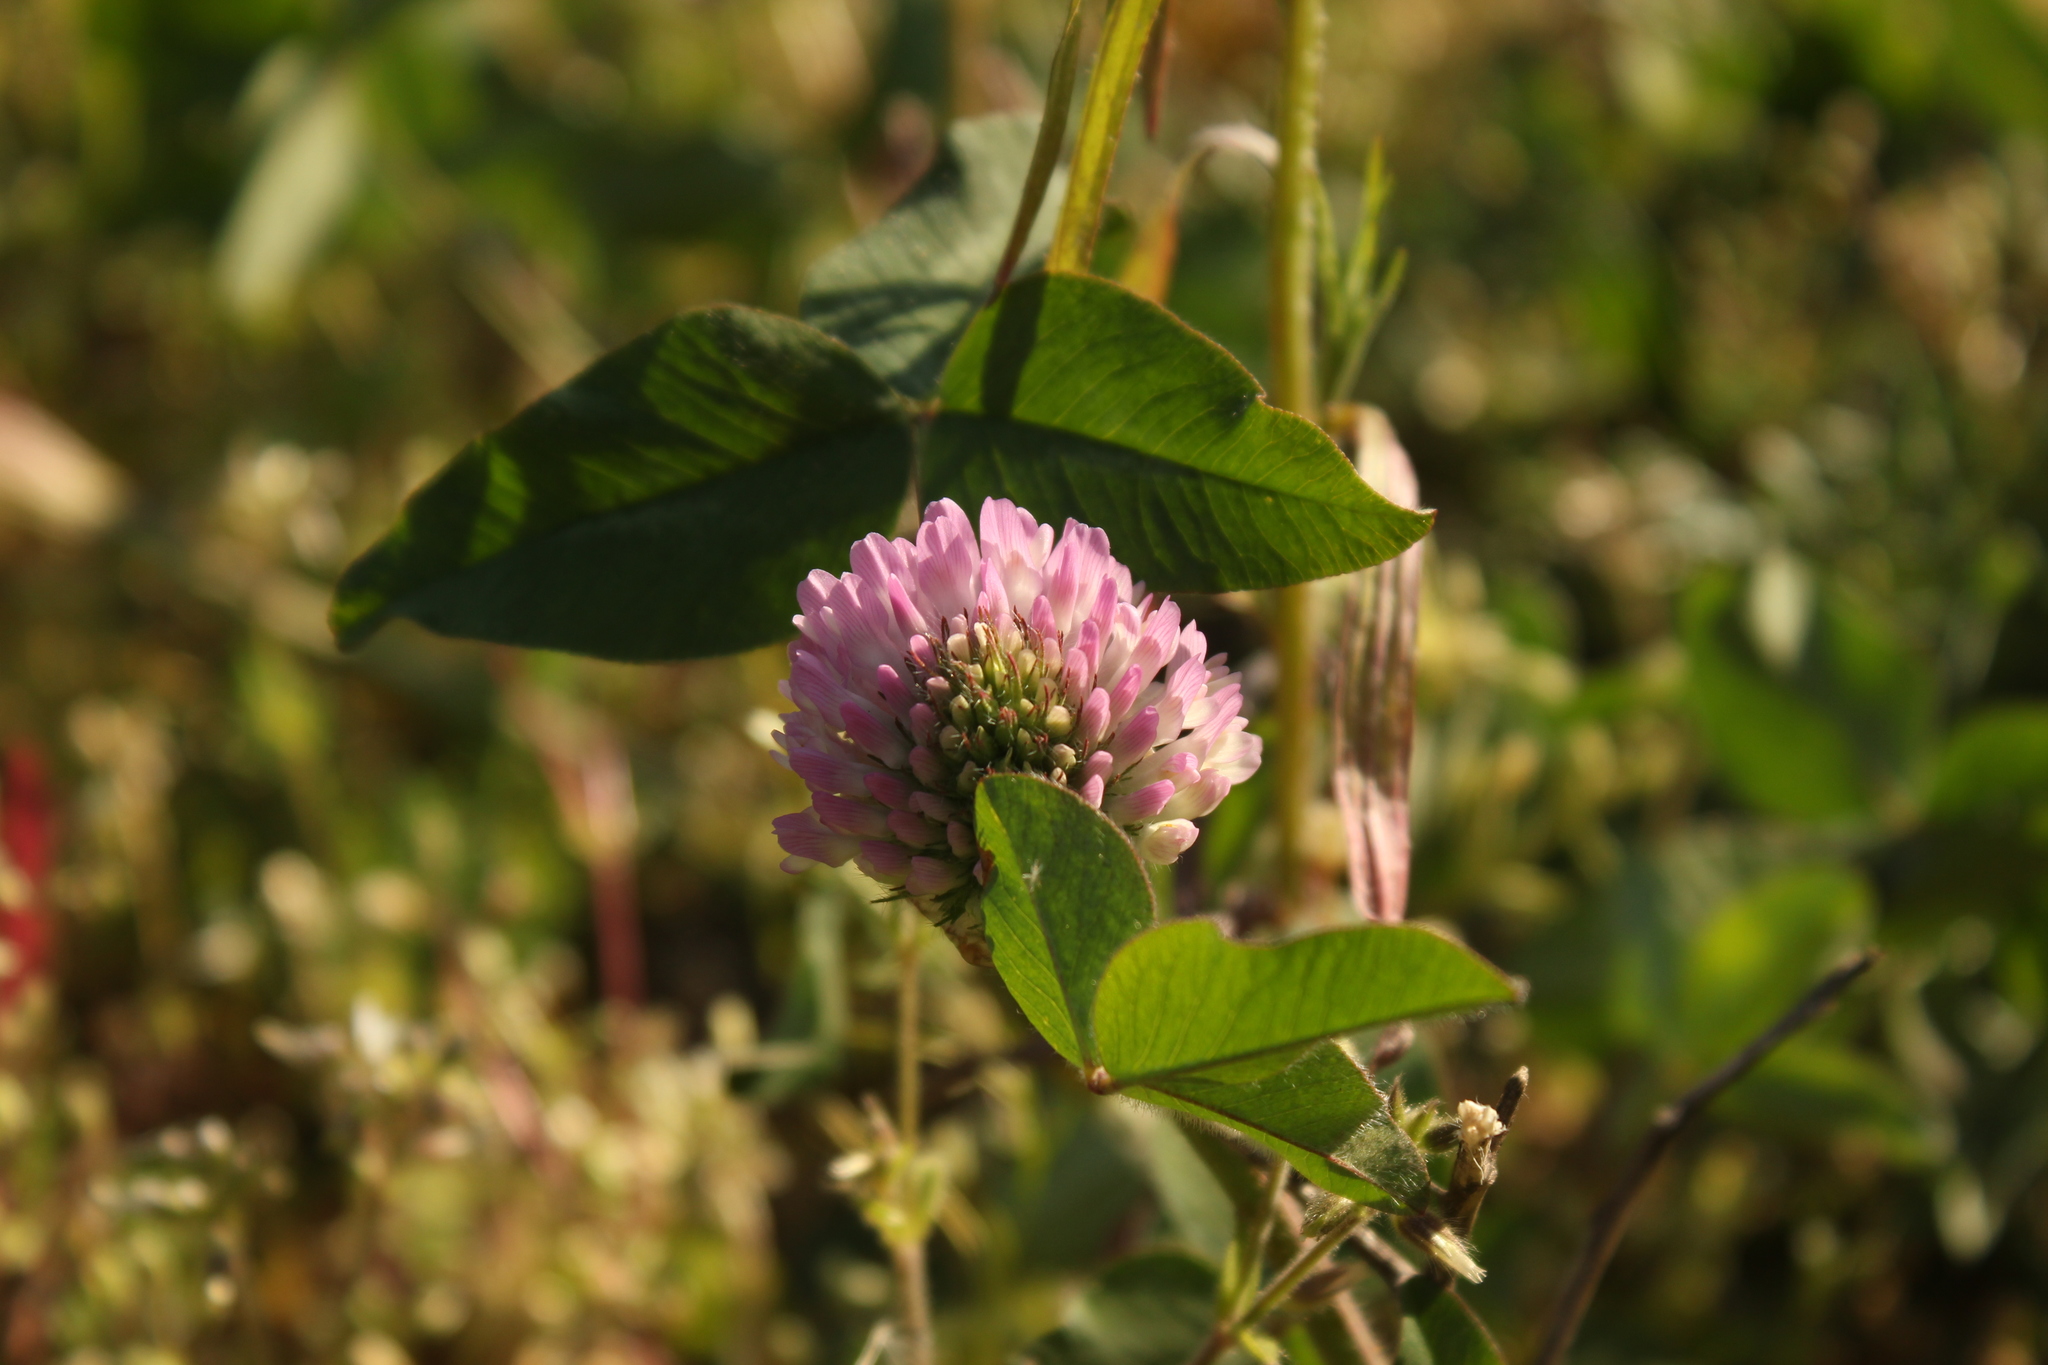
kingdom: Plantae
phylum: Tracheophyta
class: Magnoliopsida
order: Fabales
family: Fabaceae
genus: Trifolium
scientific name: Trifolium pratense
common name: Red clover
